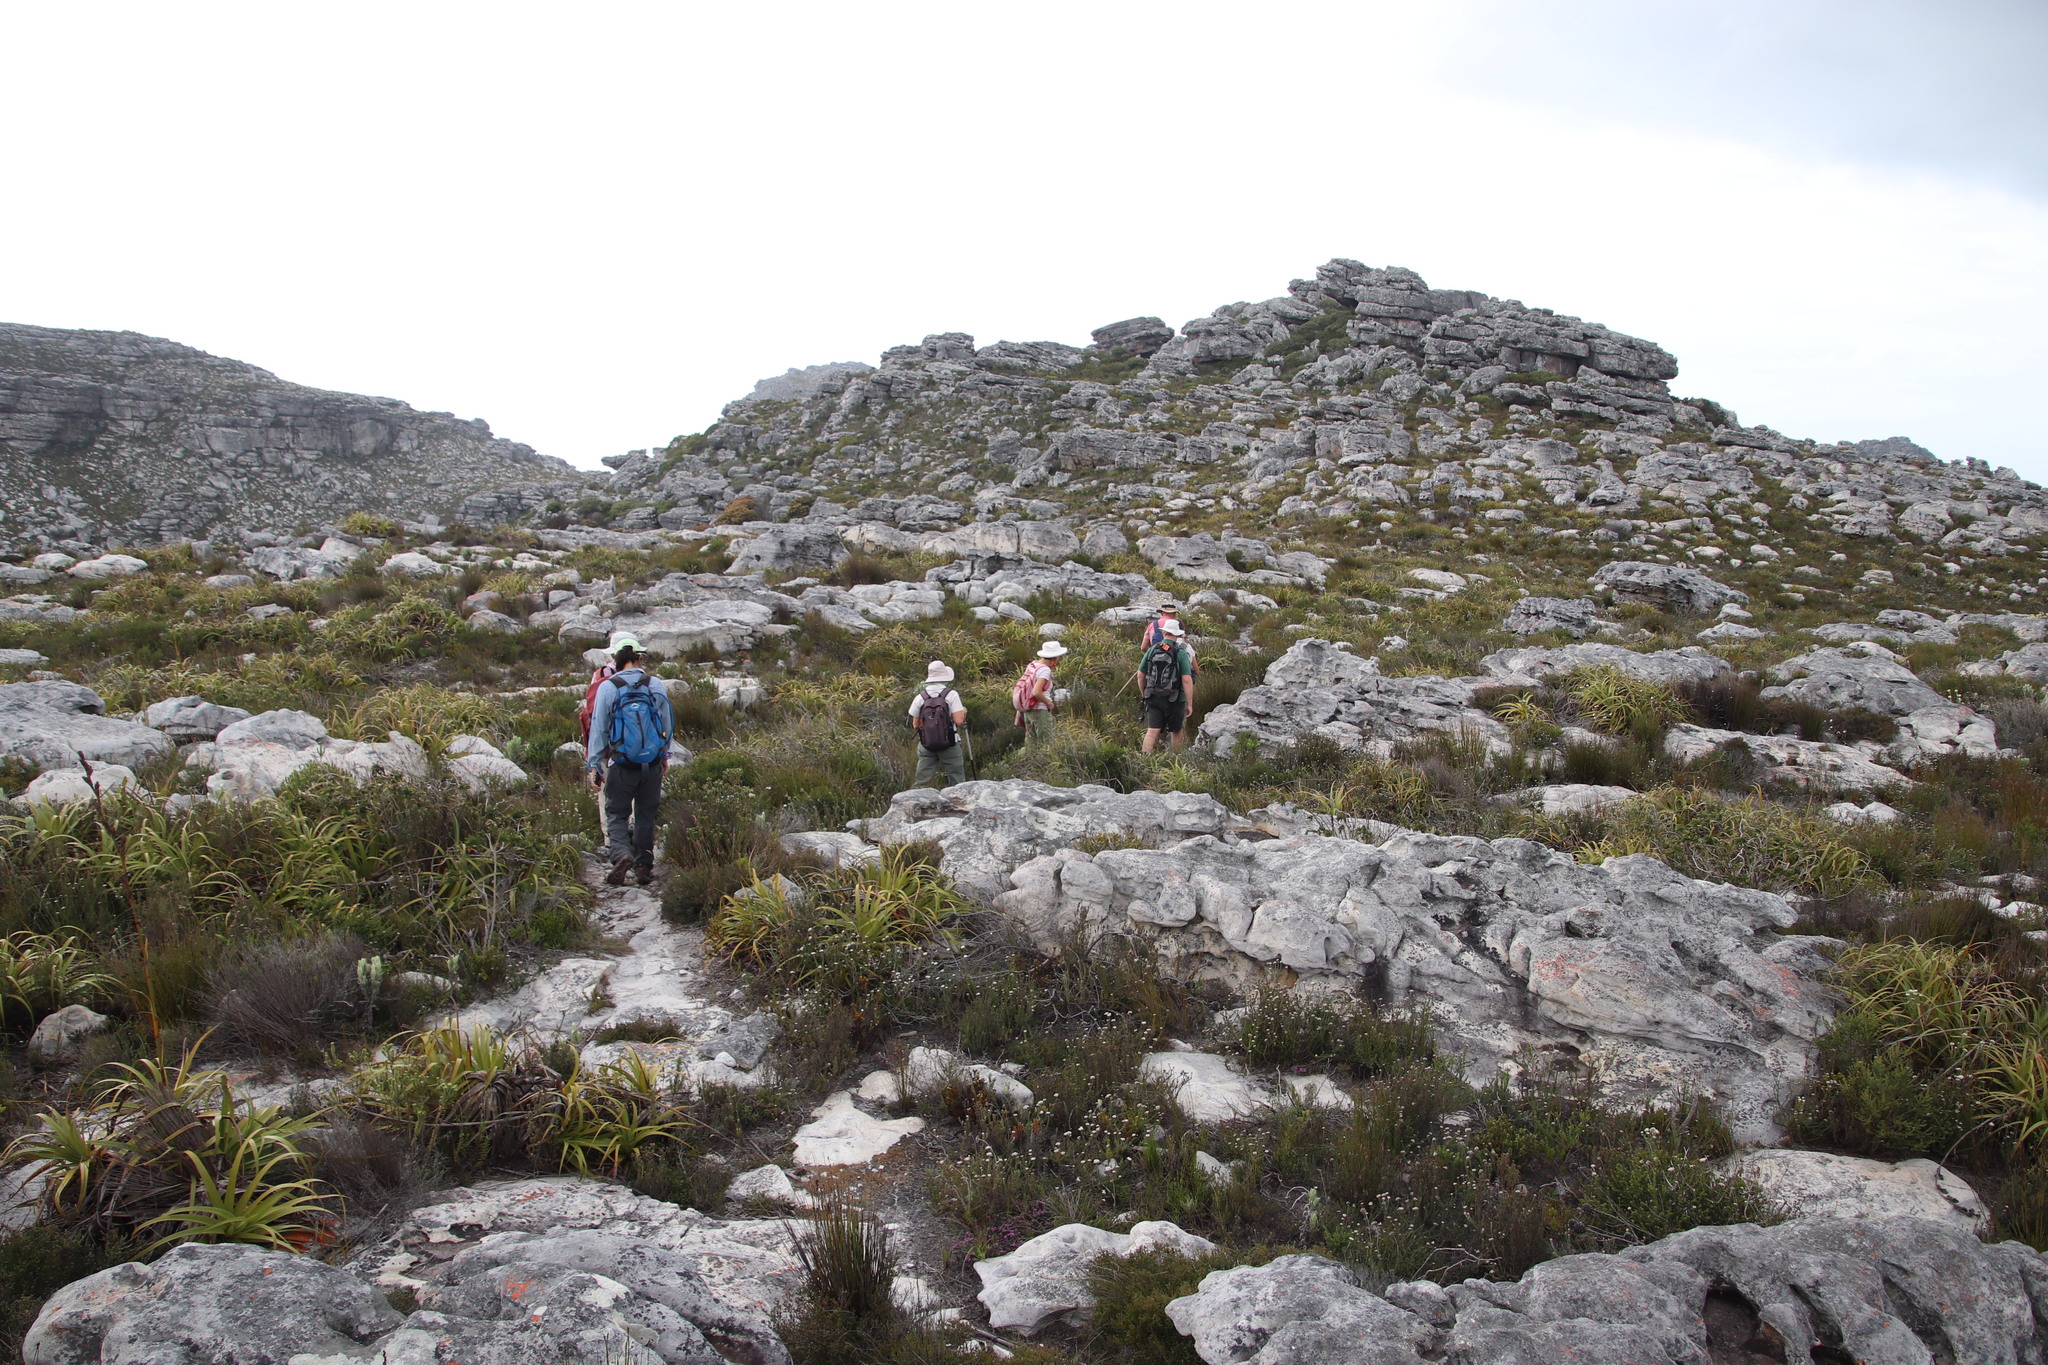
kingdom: Plantae
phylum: Tracheophyta
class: Liliopsida
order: Poales
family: Cyperaceae
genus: Tetraria
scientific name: Tetraria thermalis
